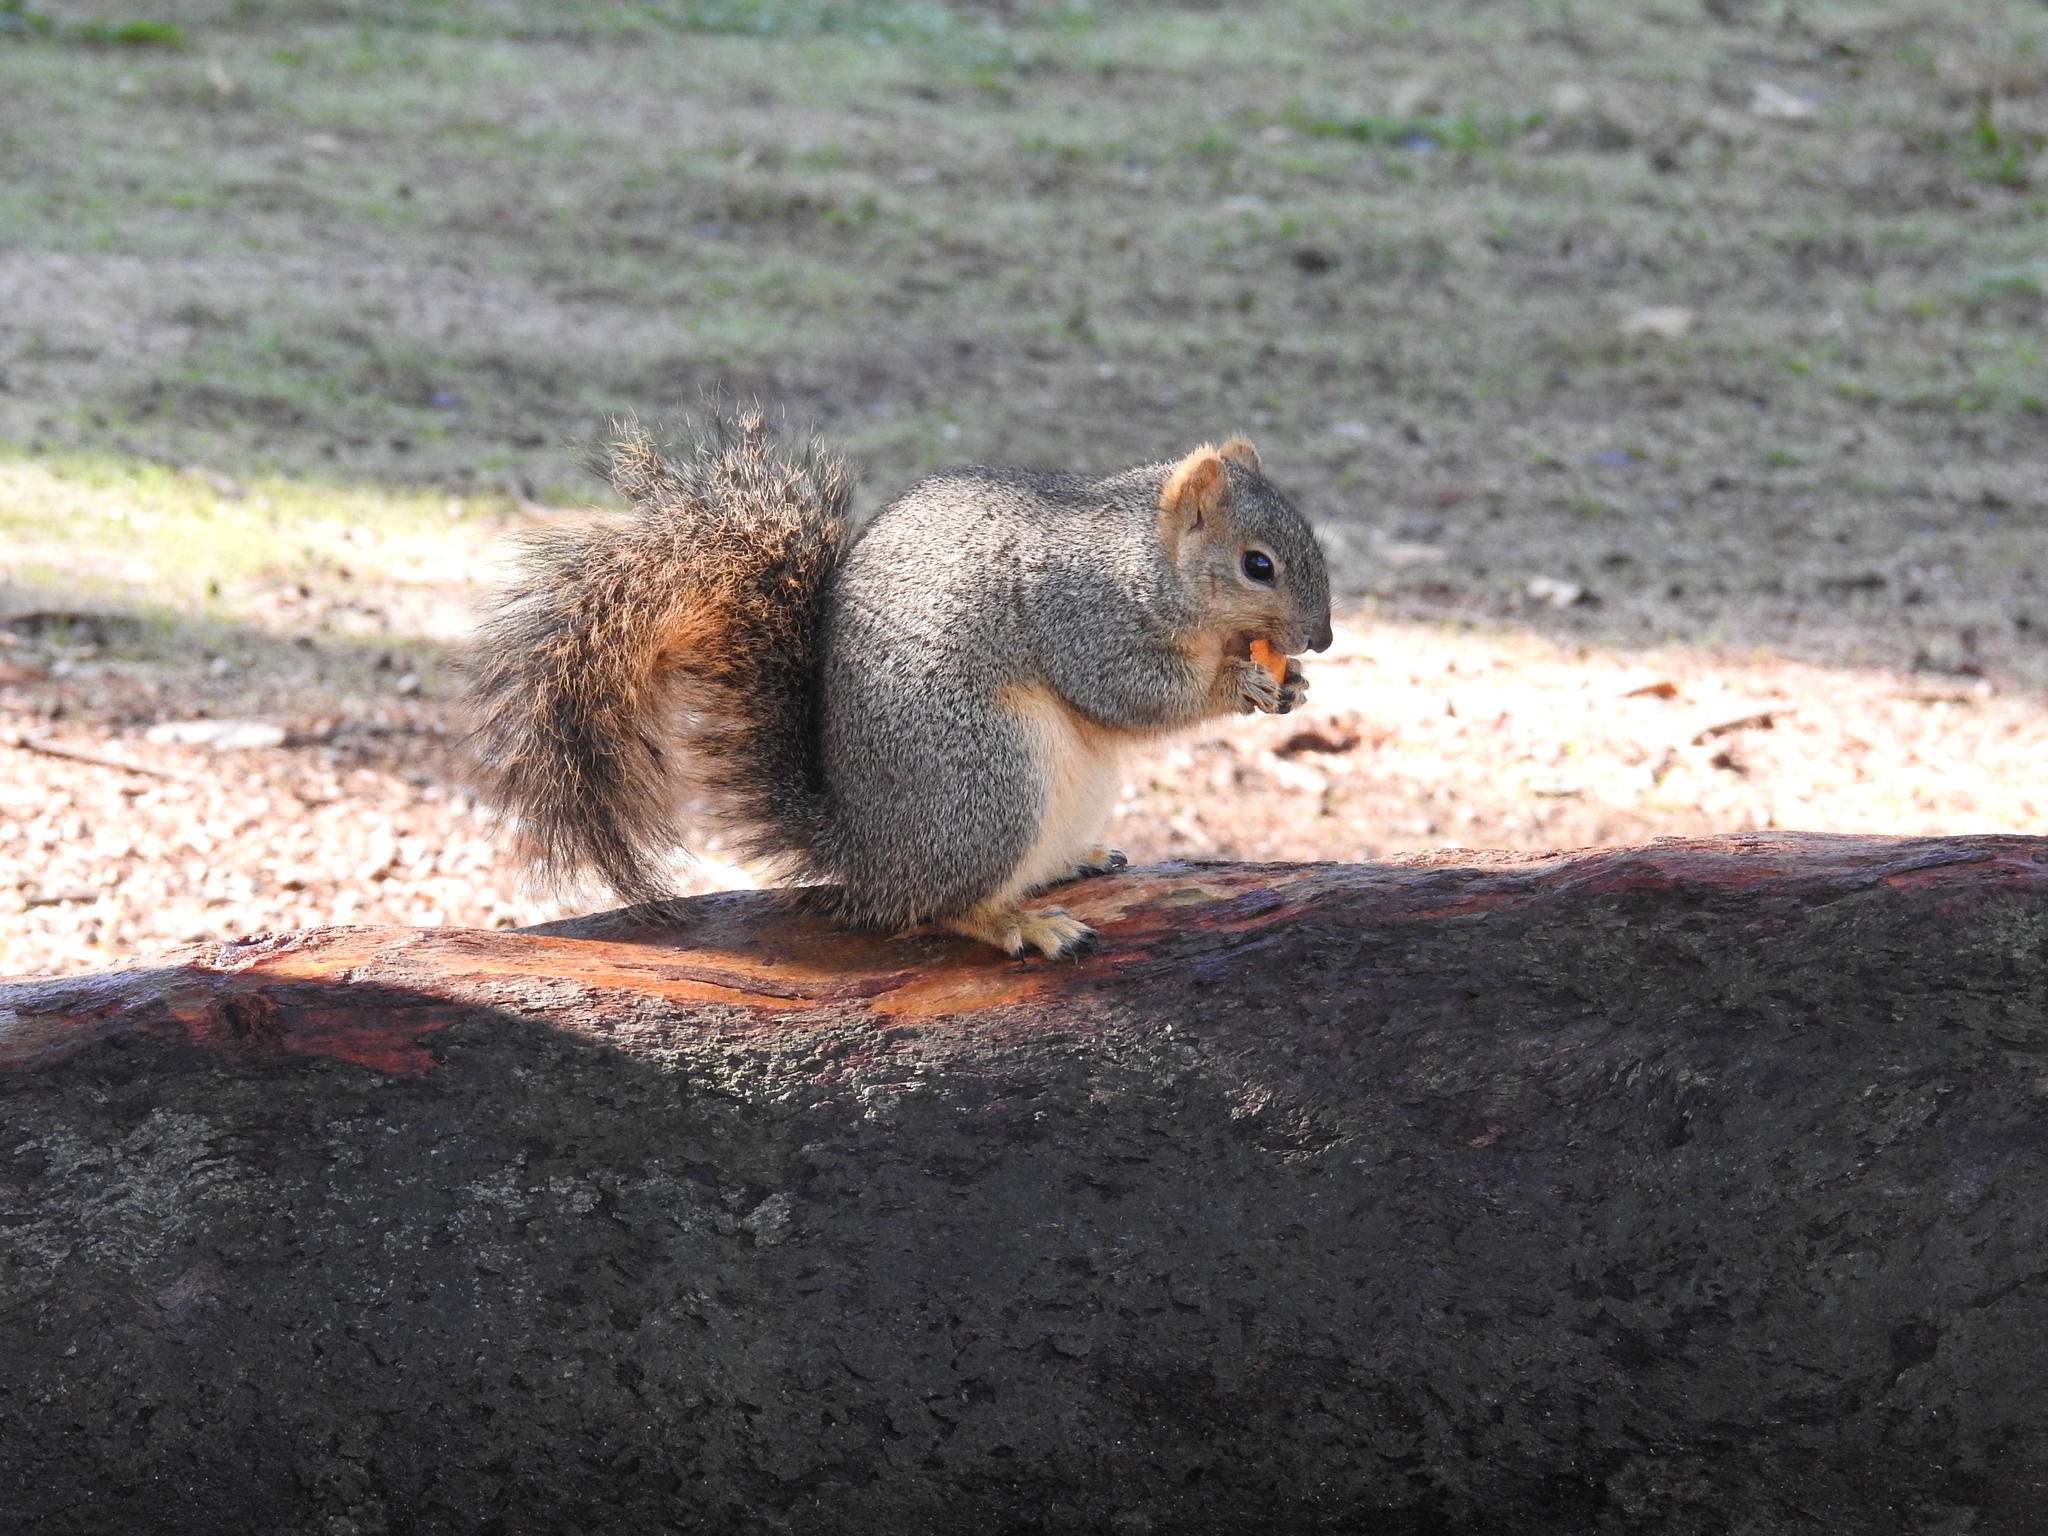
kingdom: Animalia
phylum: Chordata
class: Mammalia
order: Rodentia
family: Sciuridae
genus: Sciurus
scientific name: Sciurus niger
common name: Fox squirrel
